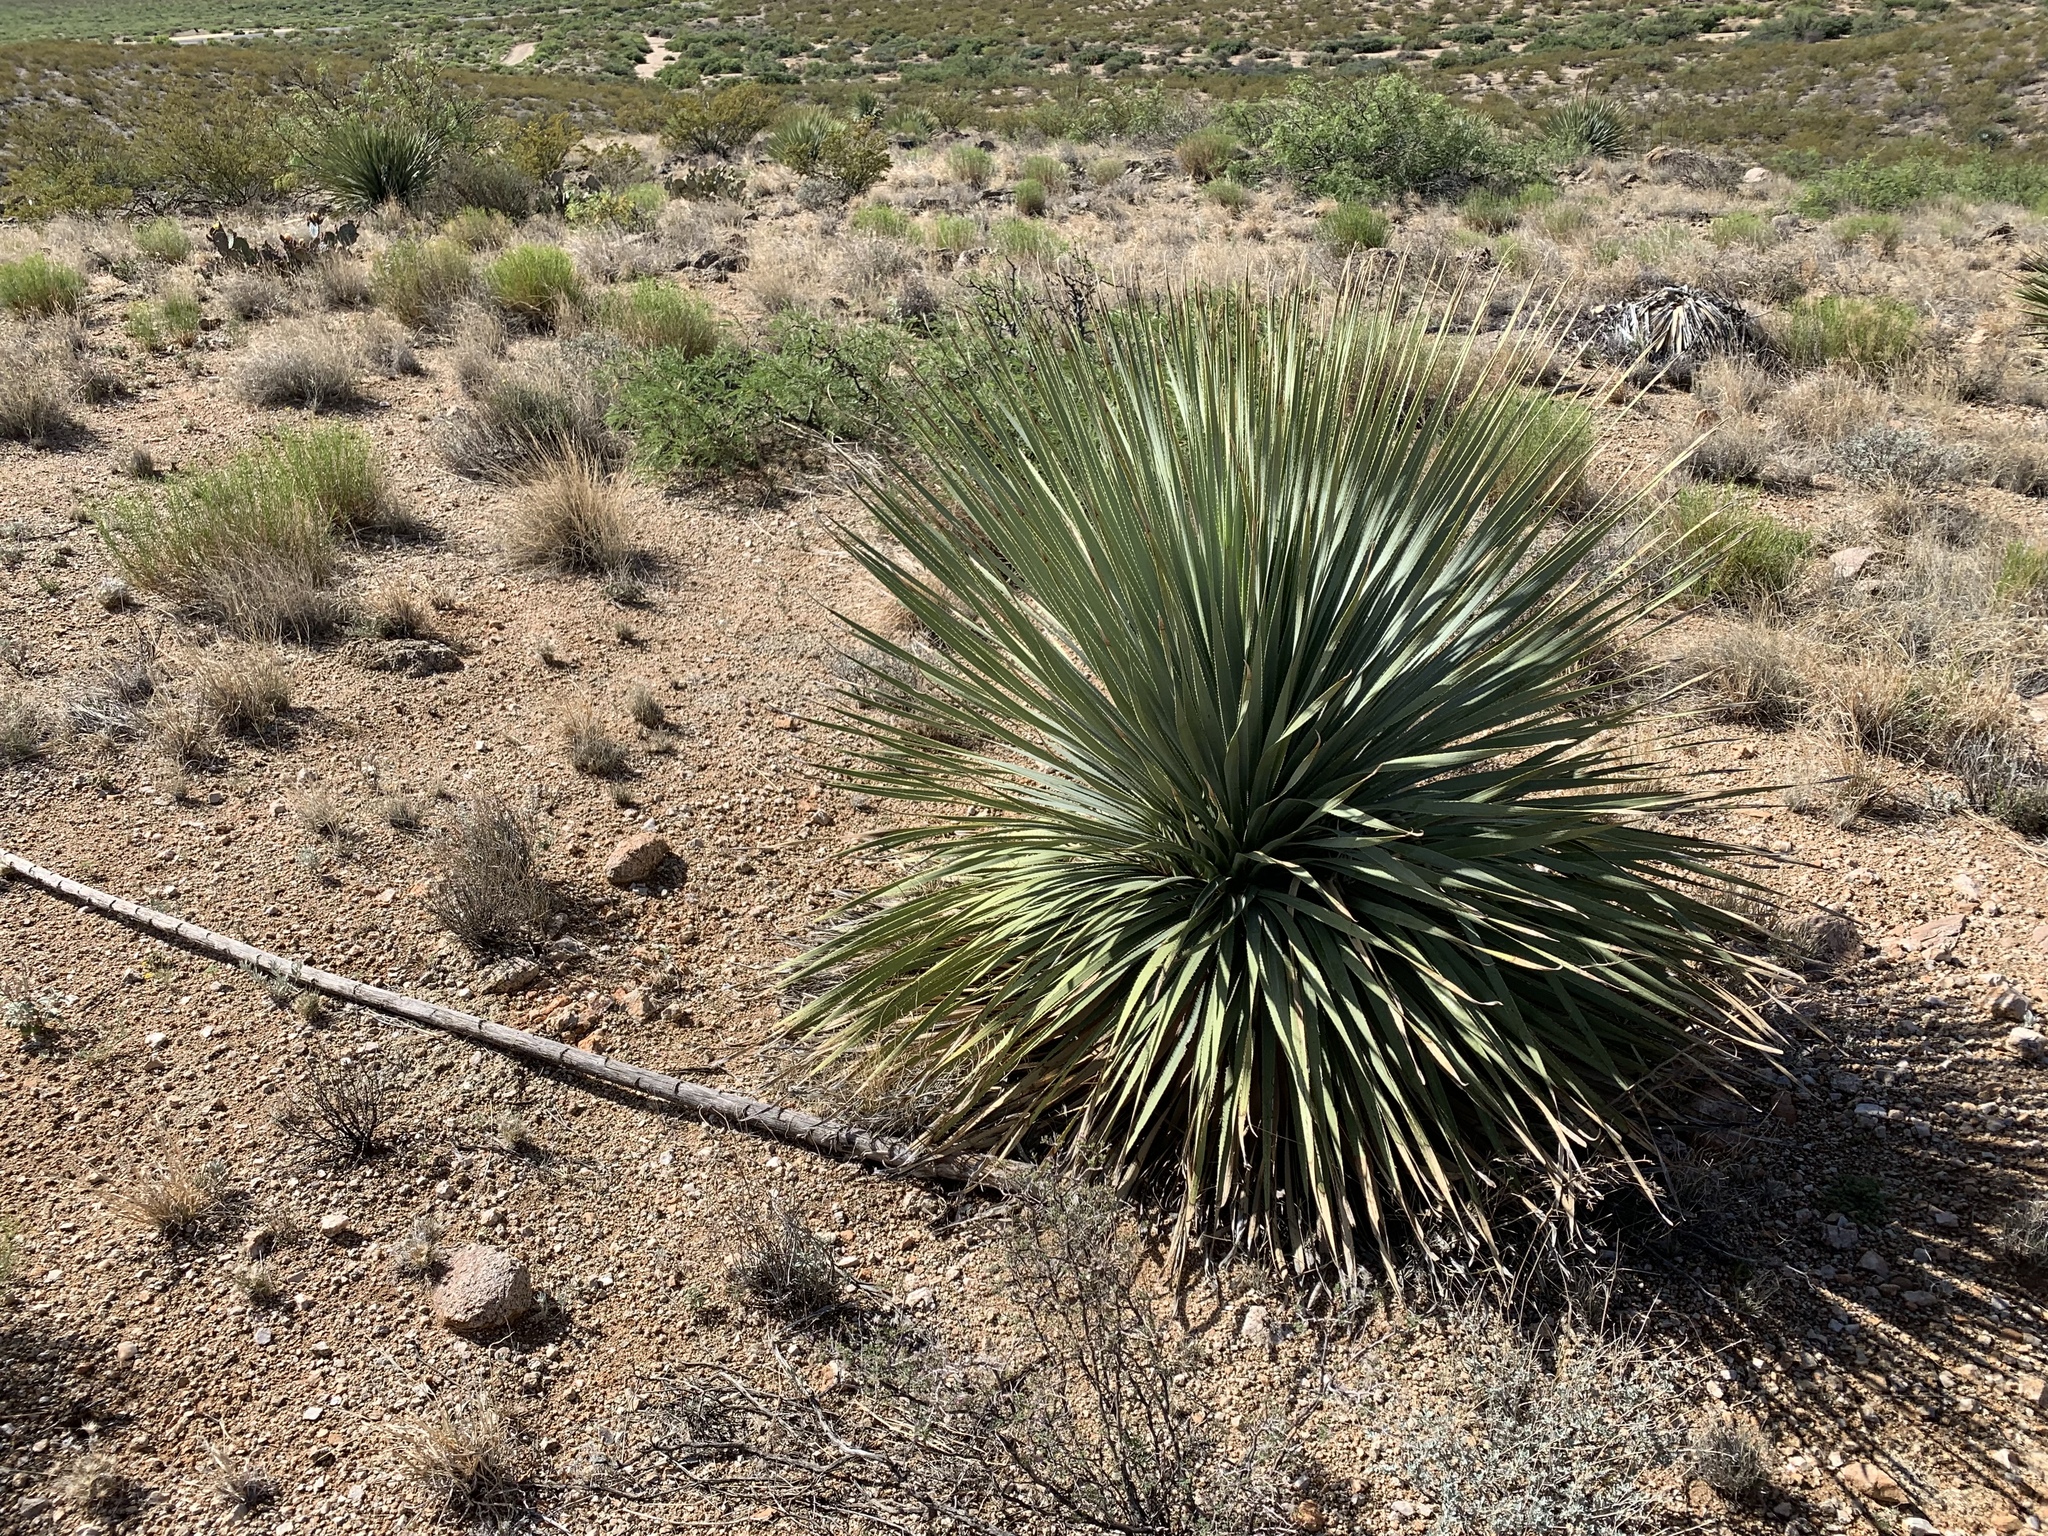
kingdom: Plantae
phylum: Tracheophyta
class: Liliopsida
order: Asparagales
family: Asparagaceae
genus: Dasylirion
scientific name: Dasylirion wheeleri
